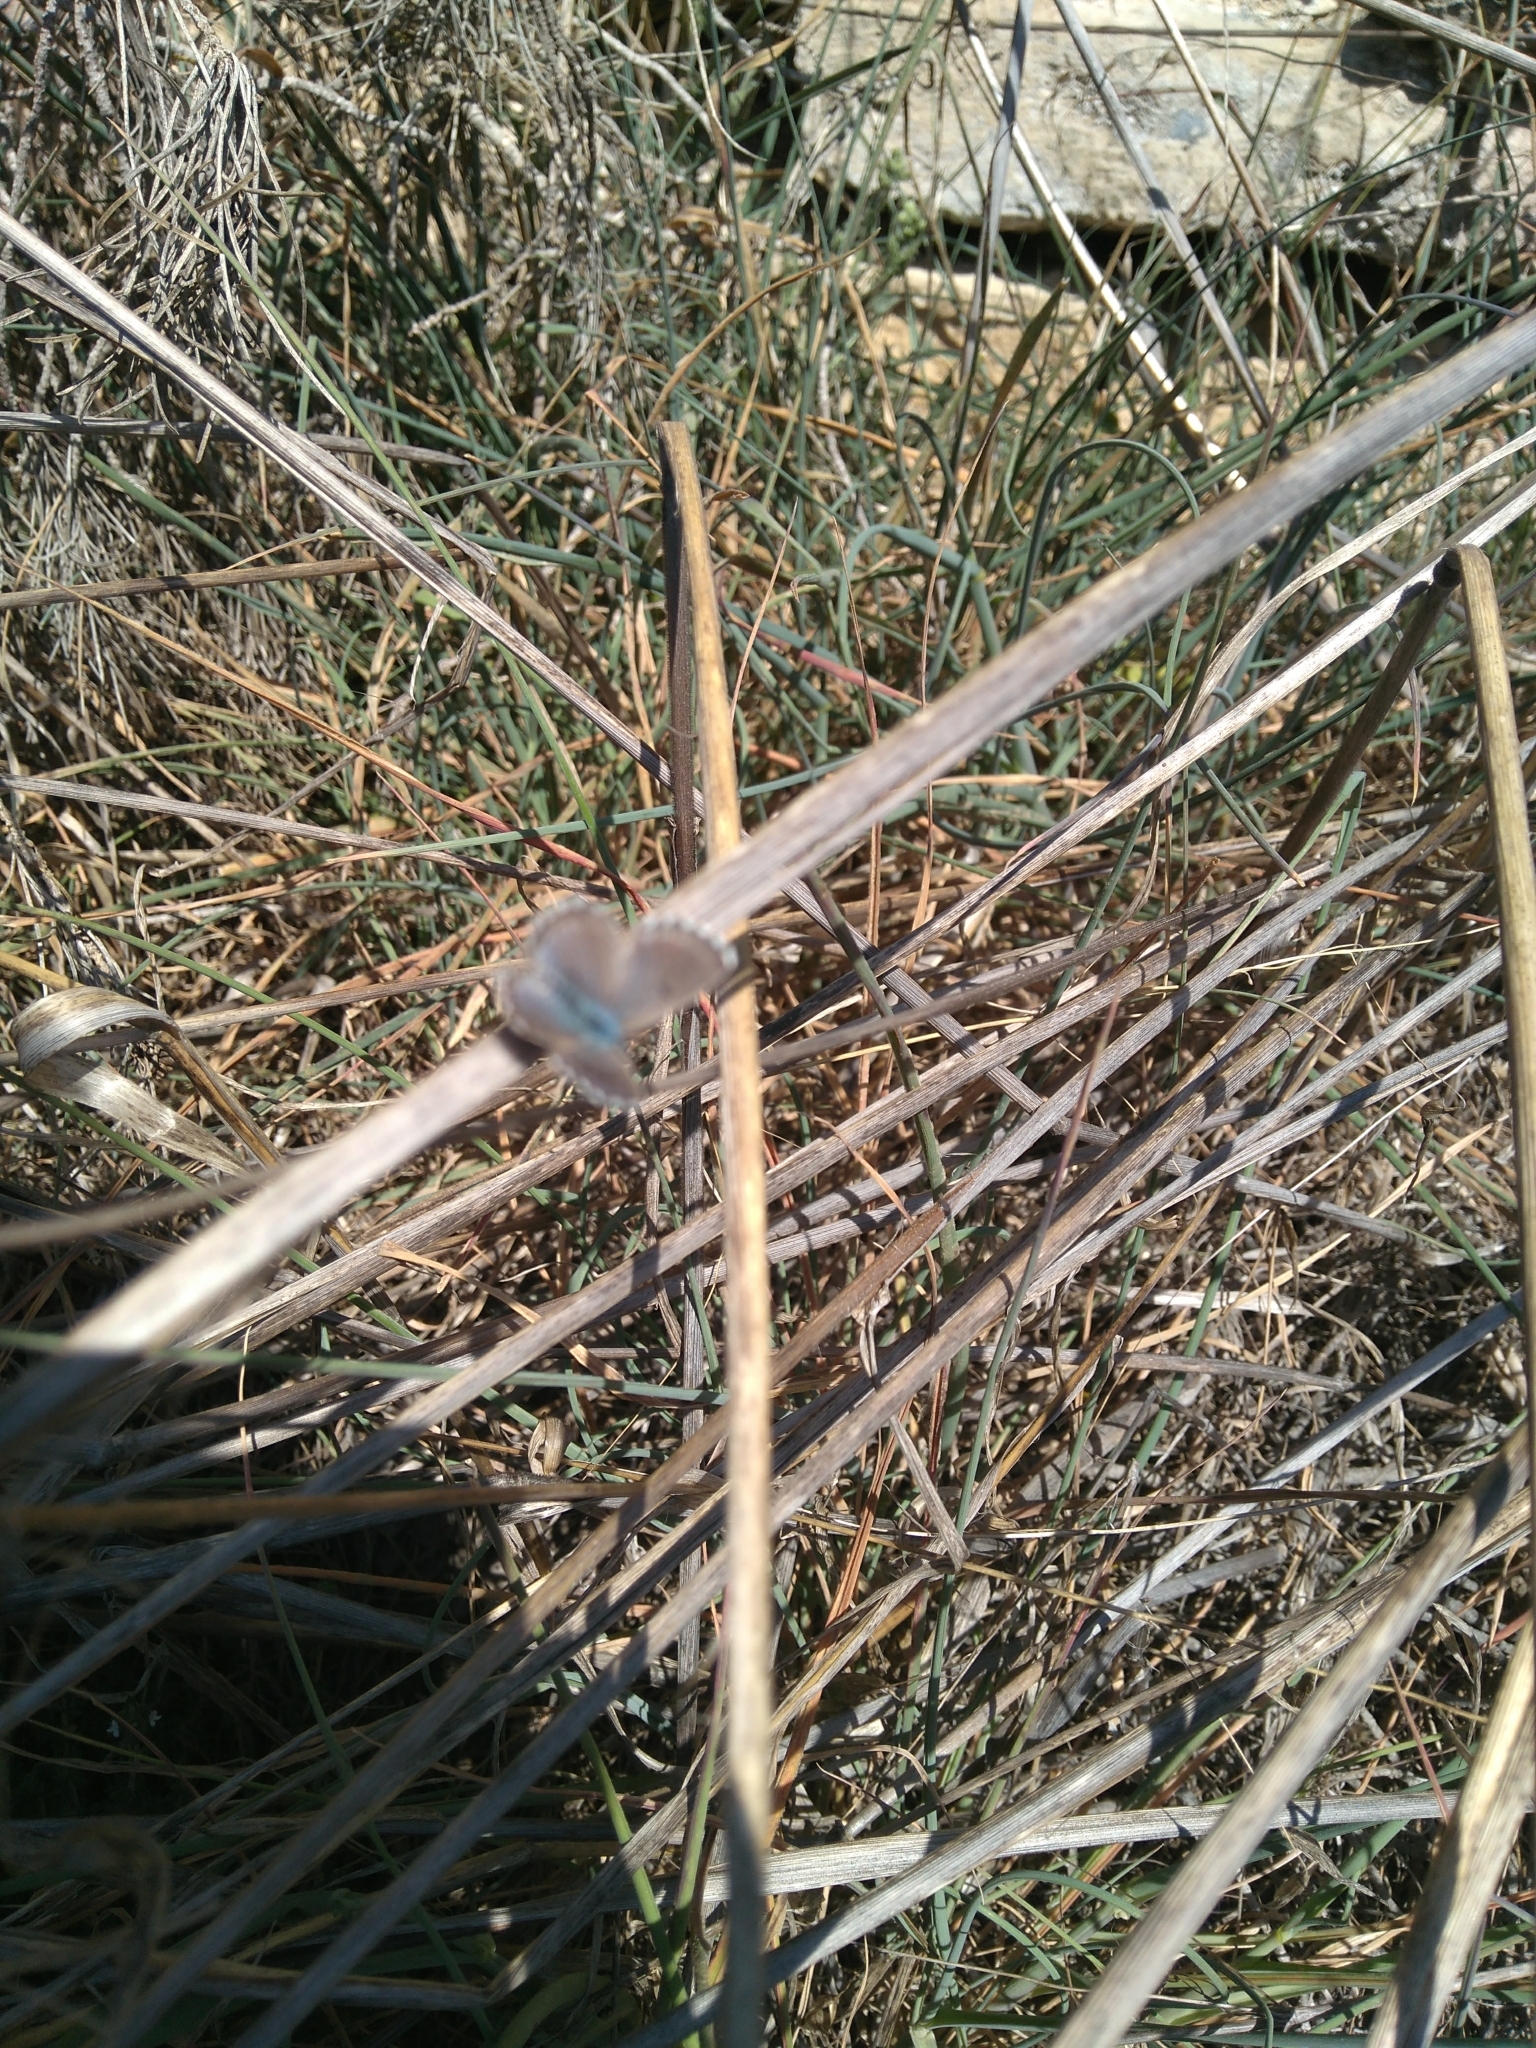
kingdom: Animalia
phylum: Arthropoda
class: Insecta
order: Lepidoptera
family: Lycaenidae
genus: Pseudophilotes
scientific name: Pseudophilotes baton
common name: Baton blue
